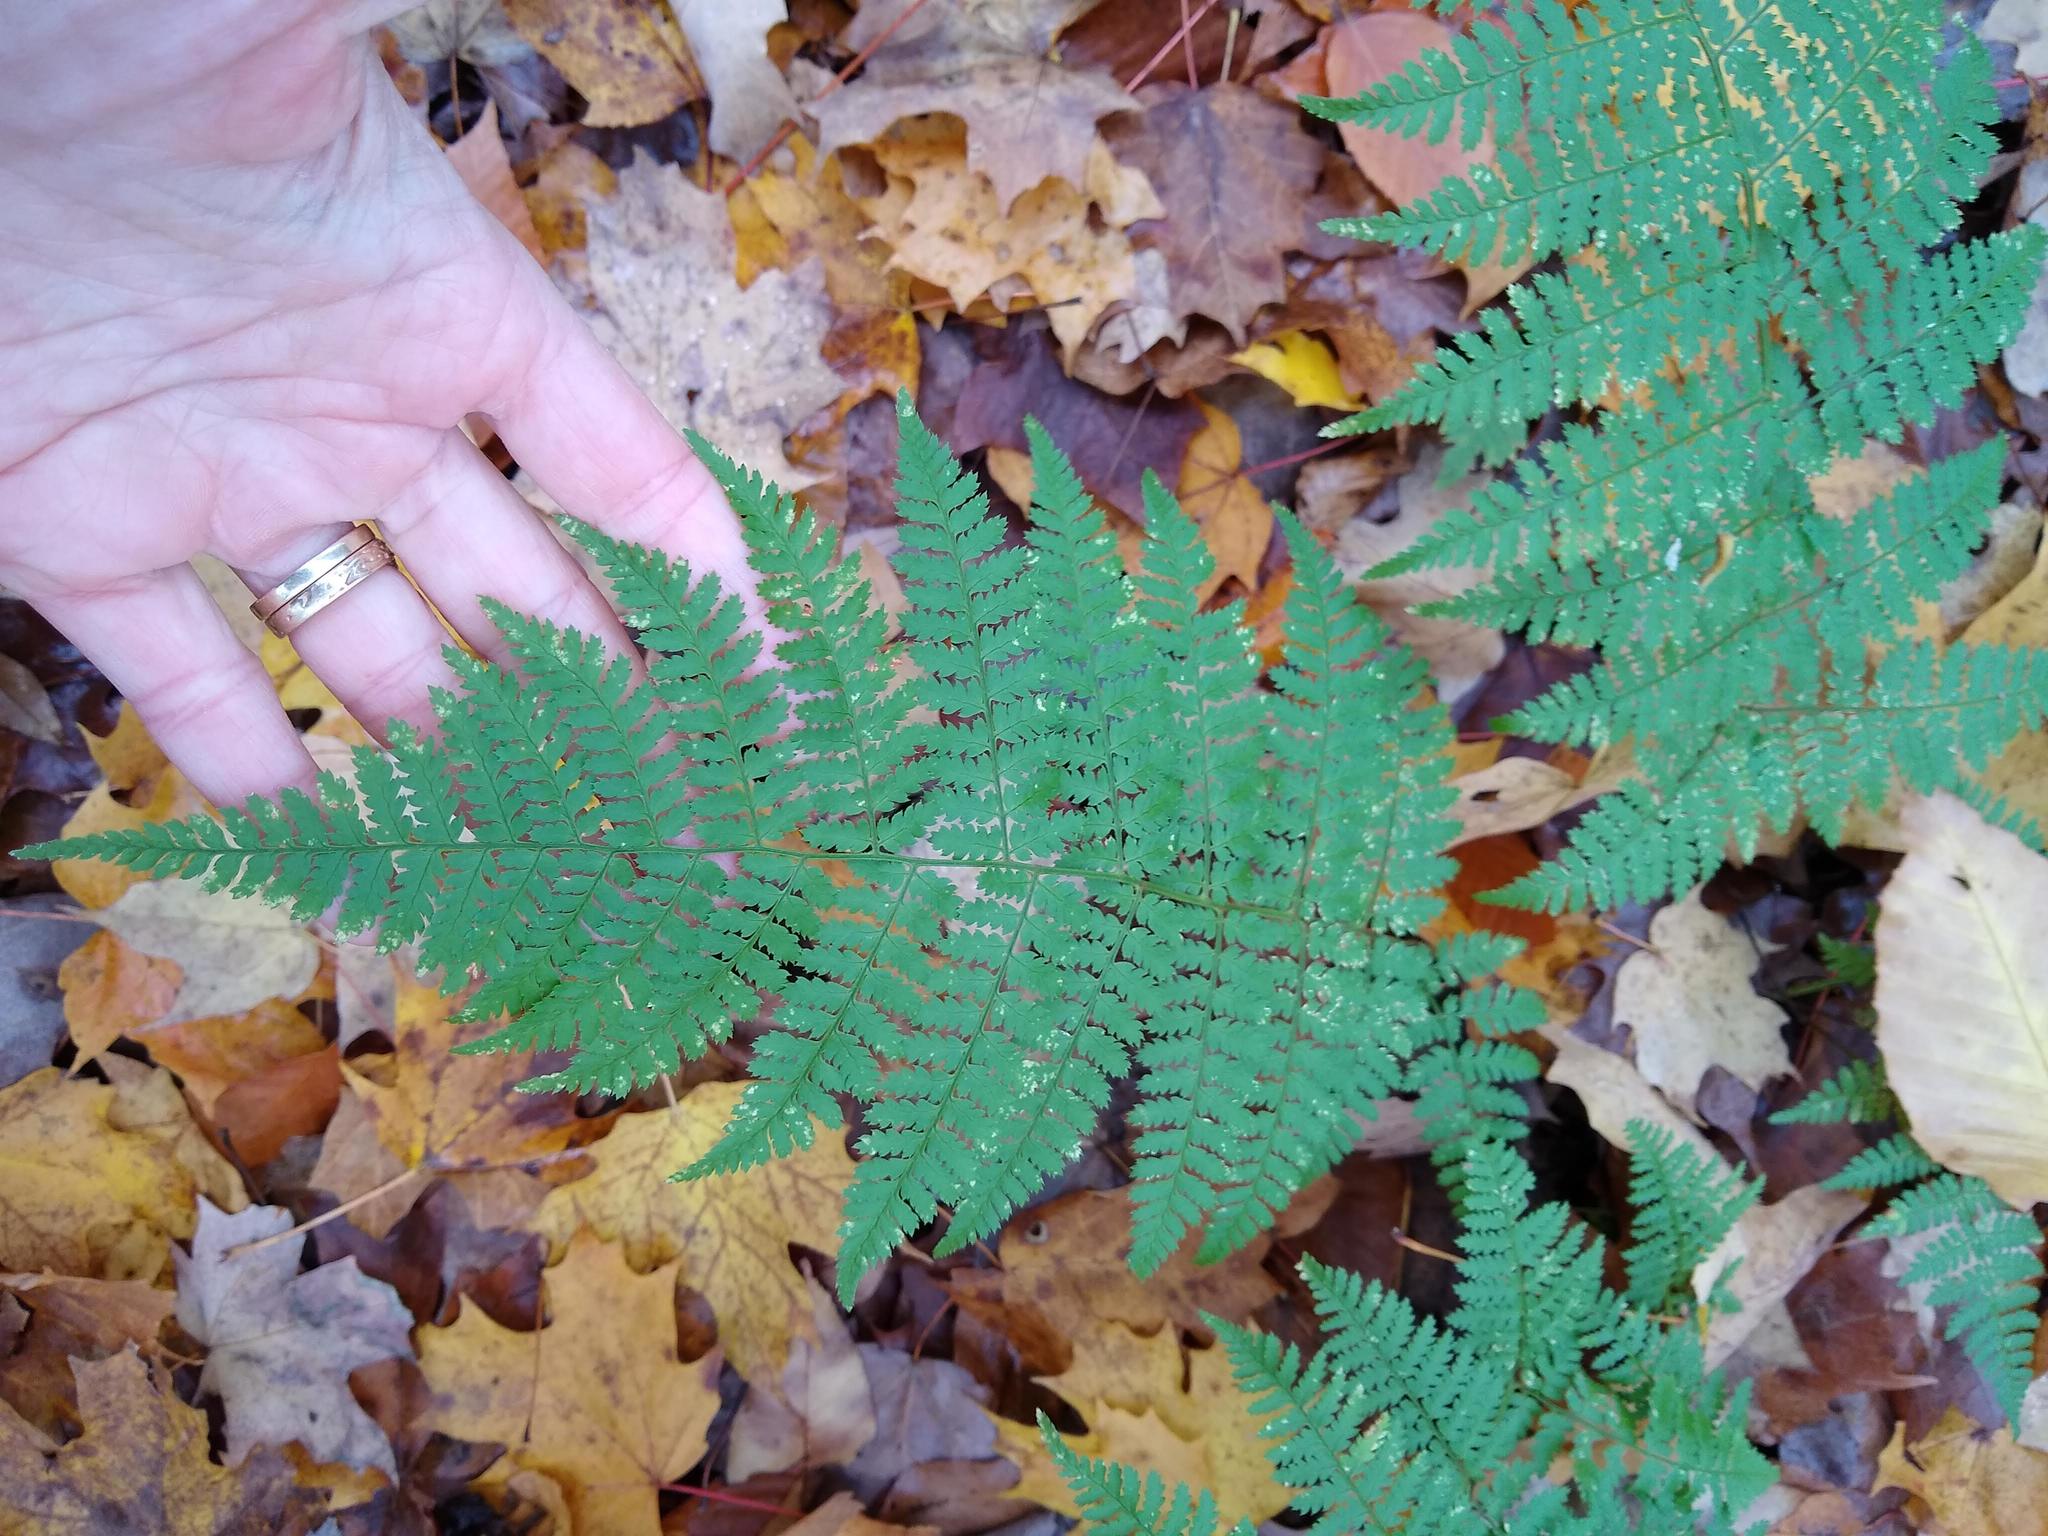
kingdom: Plantae
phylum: Tracheophyta
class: Polypodiopsida
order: Polypodiales
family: Dryopteridaceae
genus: Dryopteris
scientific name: Dryopteris intermedia
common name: Evergreen wood fern
